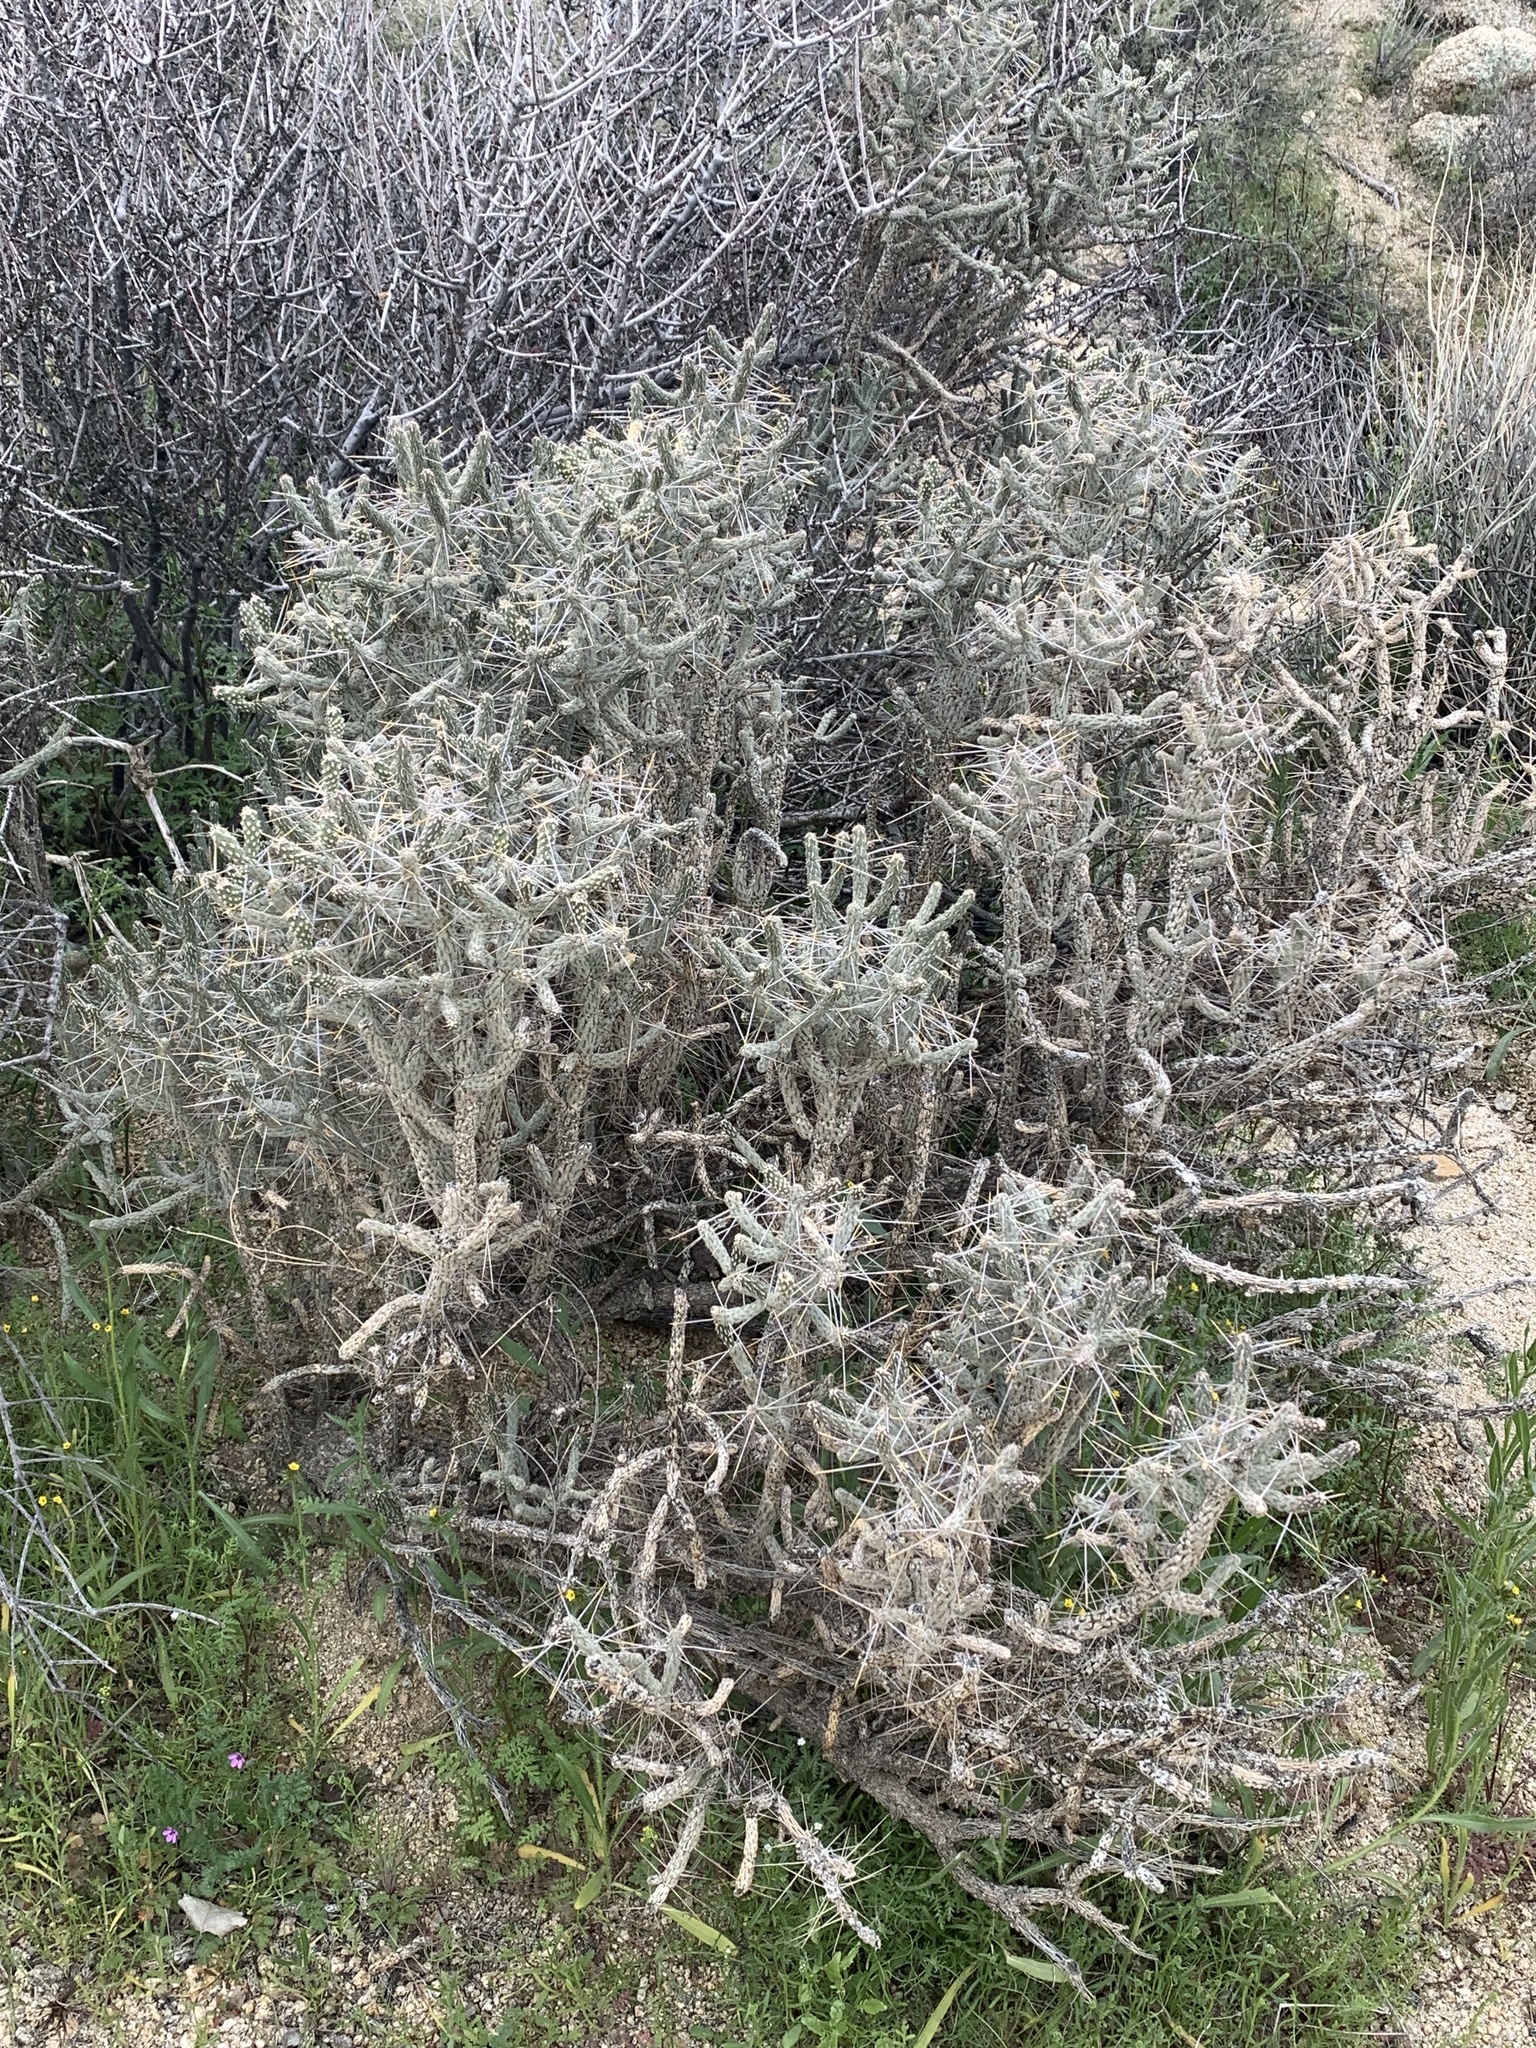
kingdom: Plantae
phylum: Tracheophyta
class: Magnoliopsida
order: Caryophyllales
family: Cactaceae
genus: Cylindropuntia
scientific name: Cylindropuntia ramosissima
